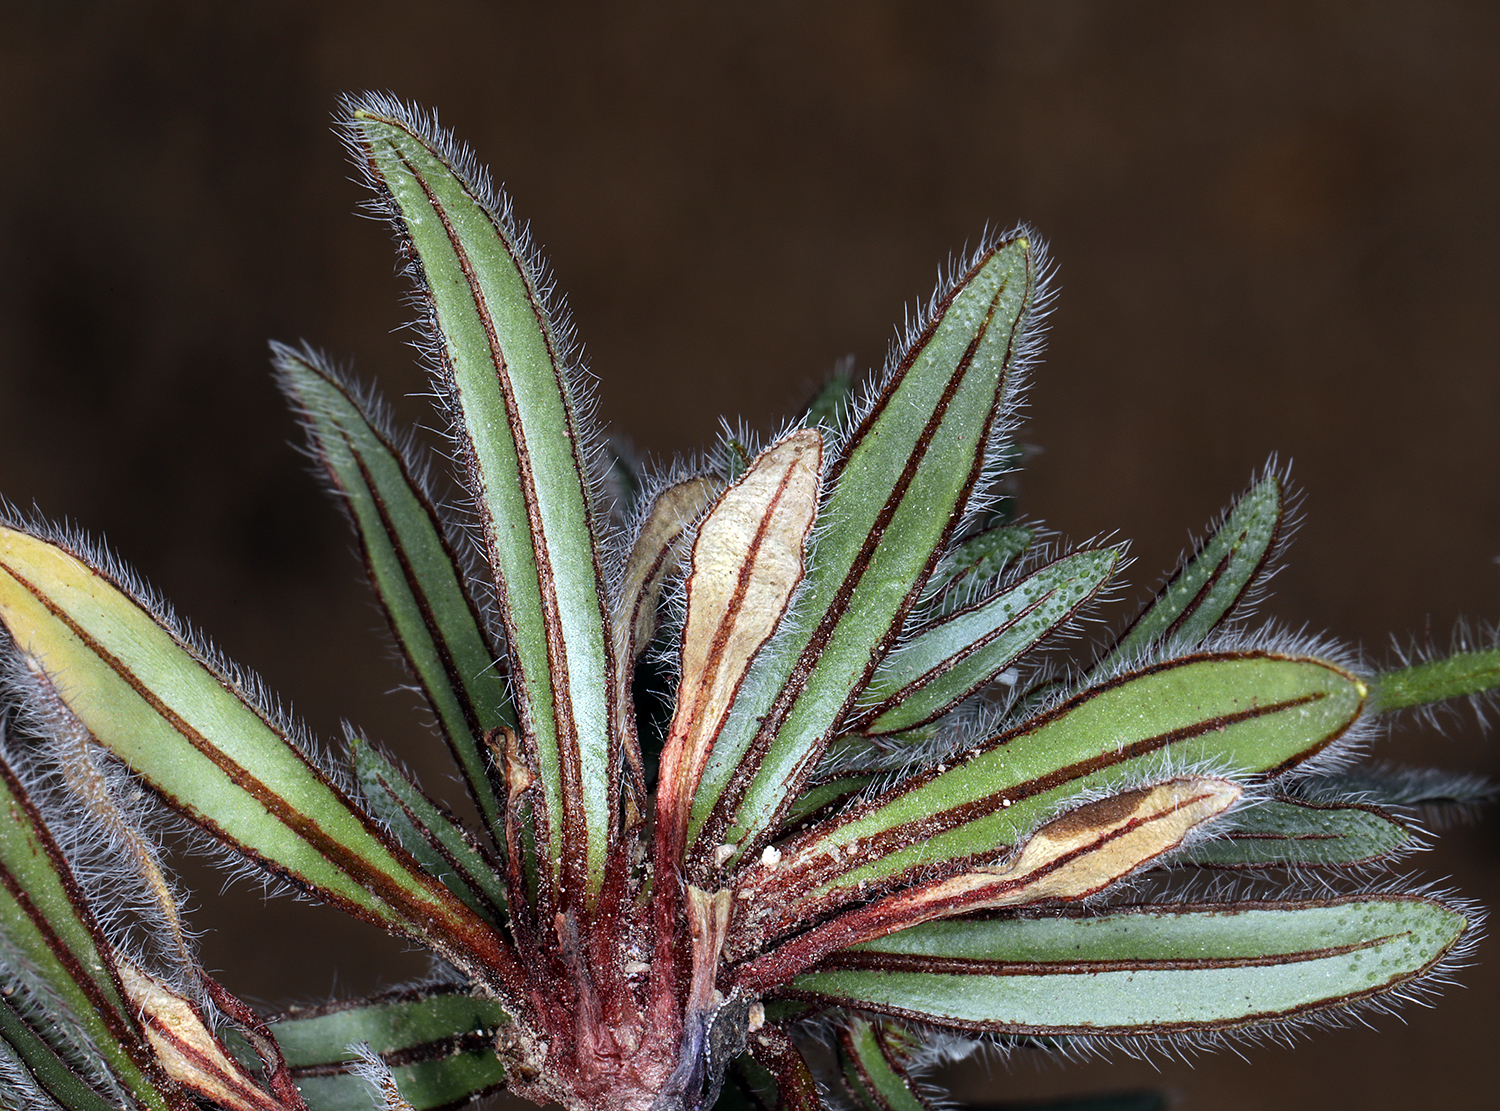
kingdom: Plantae
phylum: Tracheophyta
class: Magnoliopsida
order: Boraginales
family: Boraginaceae
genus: Plagiobothrys
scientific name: Plagiobothrys arizonicus
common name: Arizona popcorn-flower
